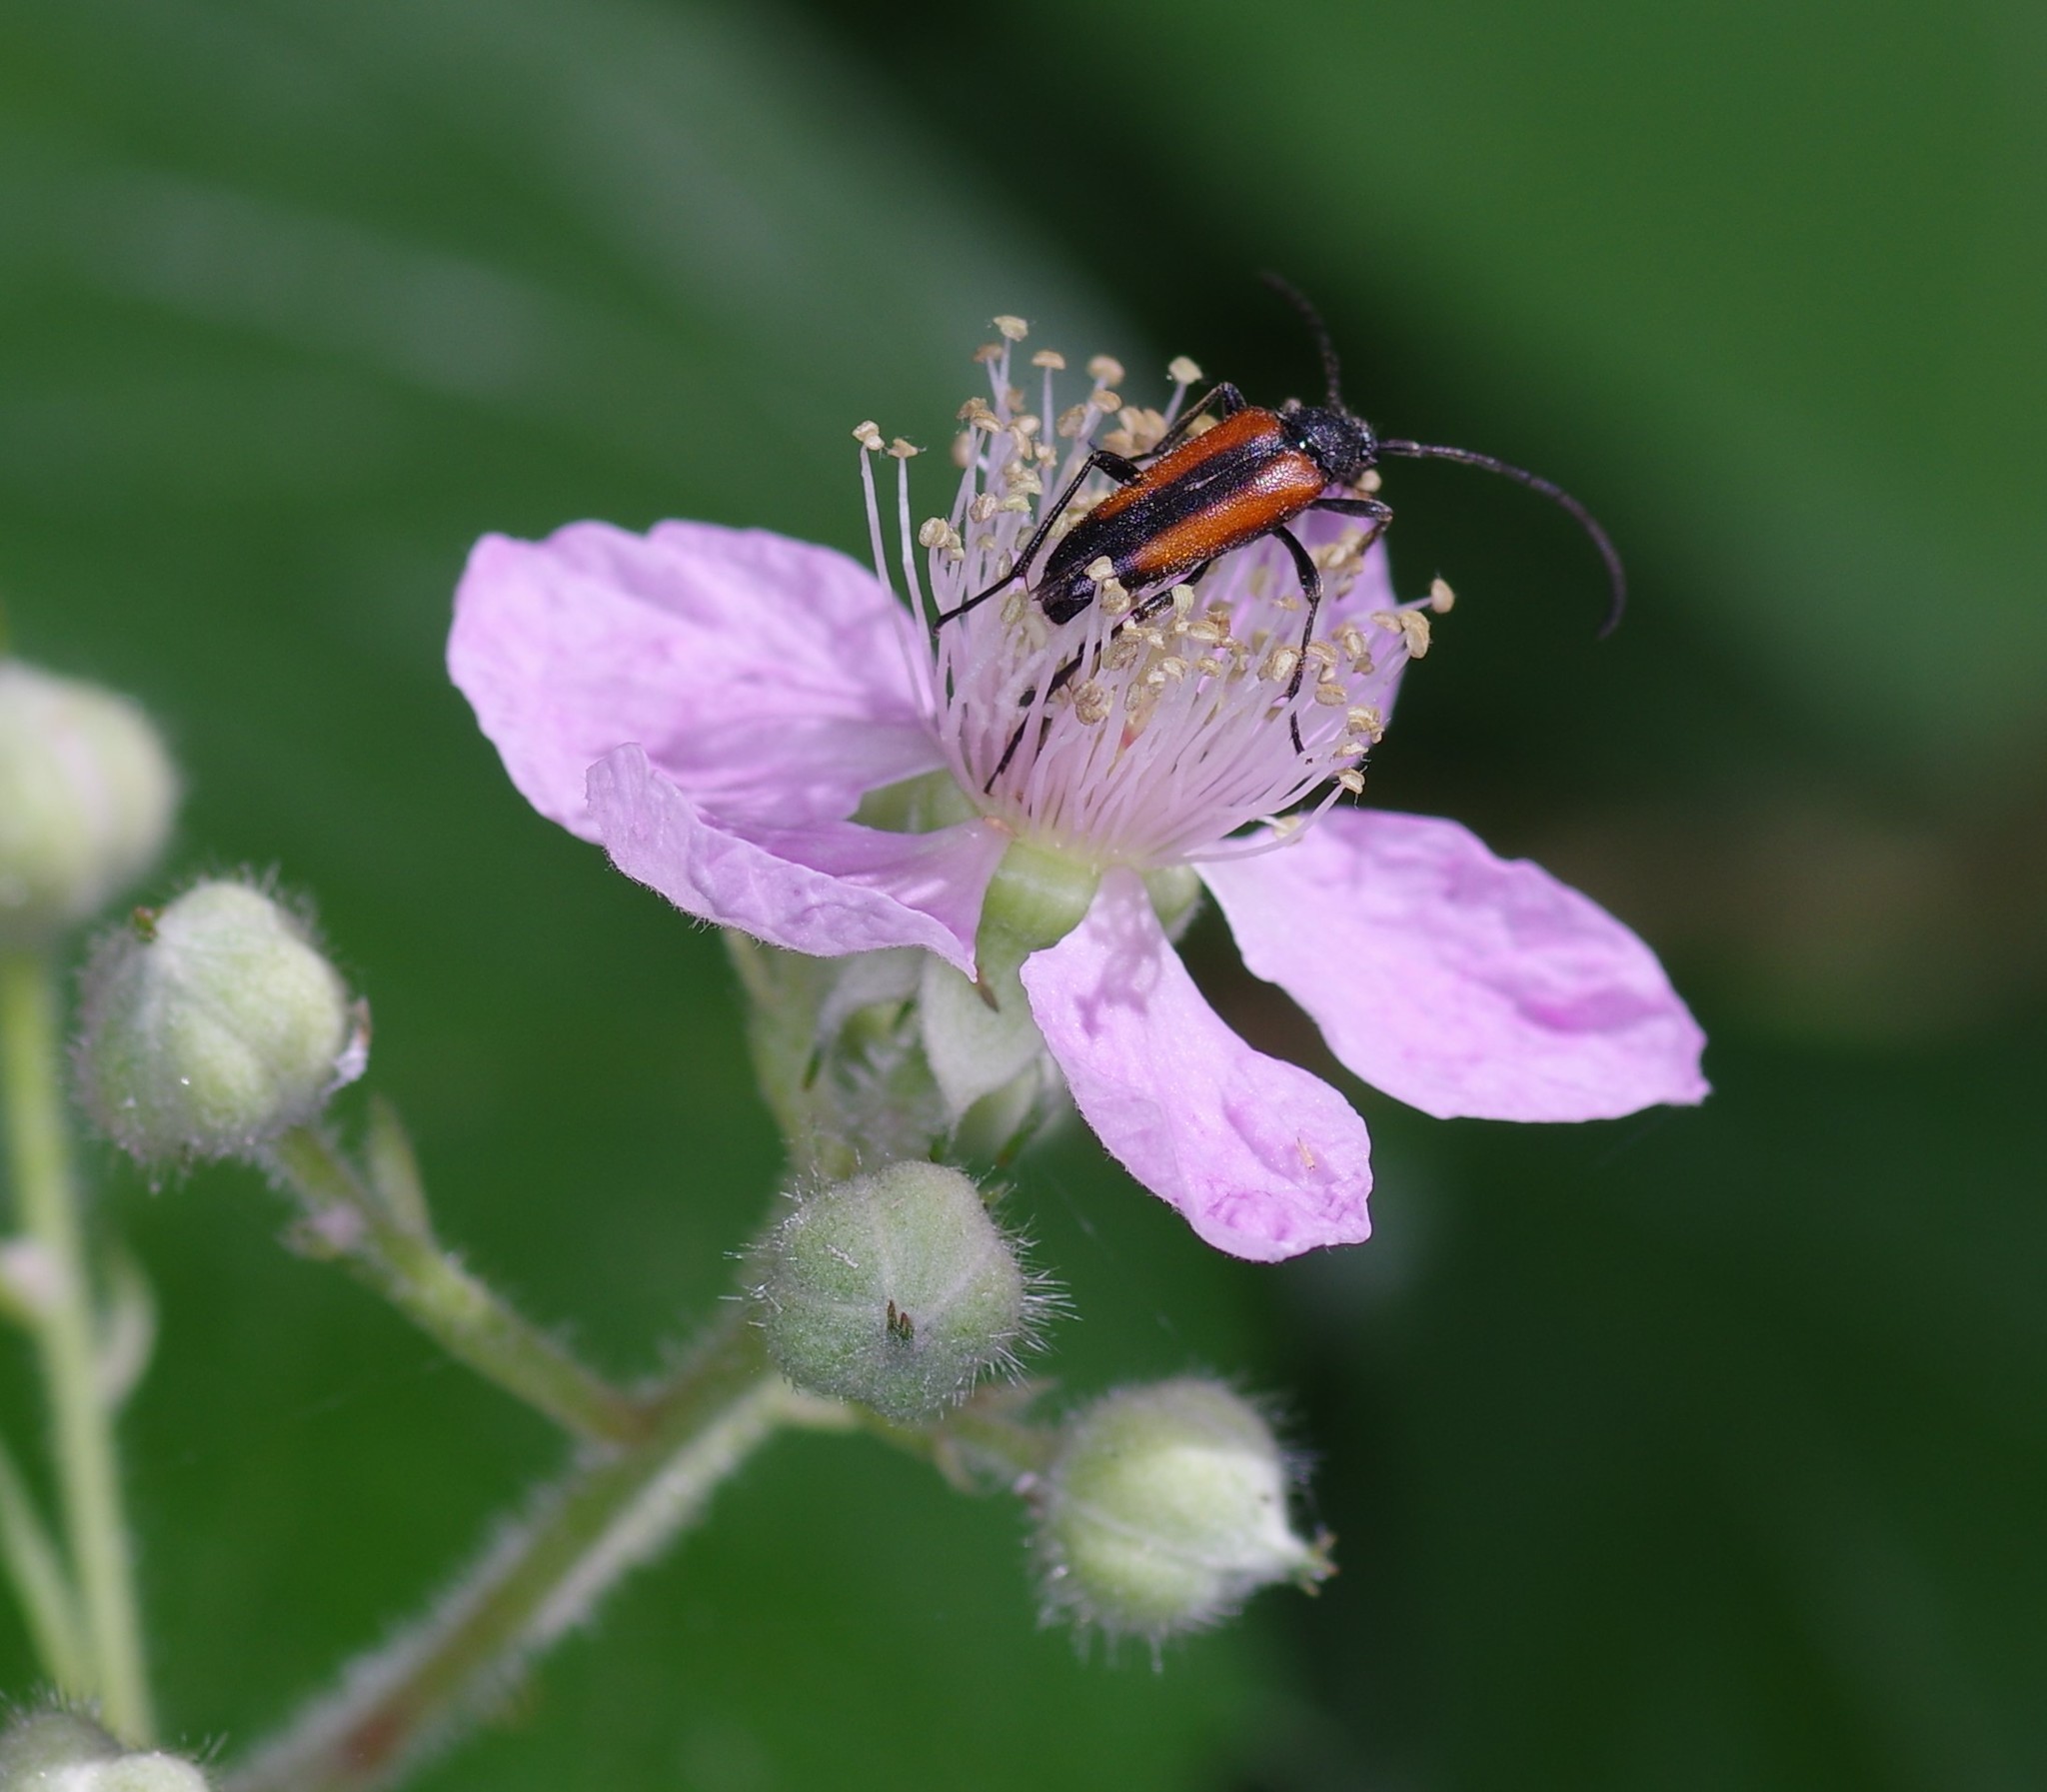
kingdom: Animalia
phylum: Arthropoda
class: Insecta
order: Coleoptera
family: Cerambycidae
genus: Stenurella
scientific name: Stenurella melanura
